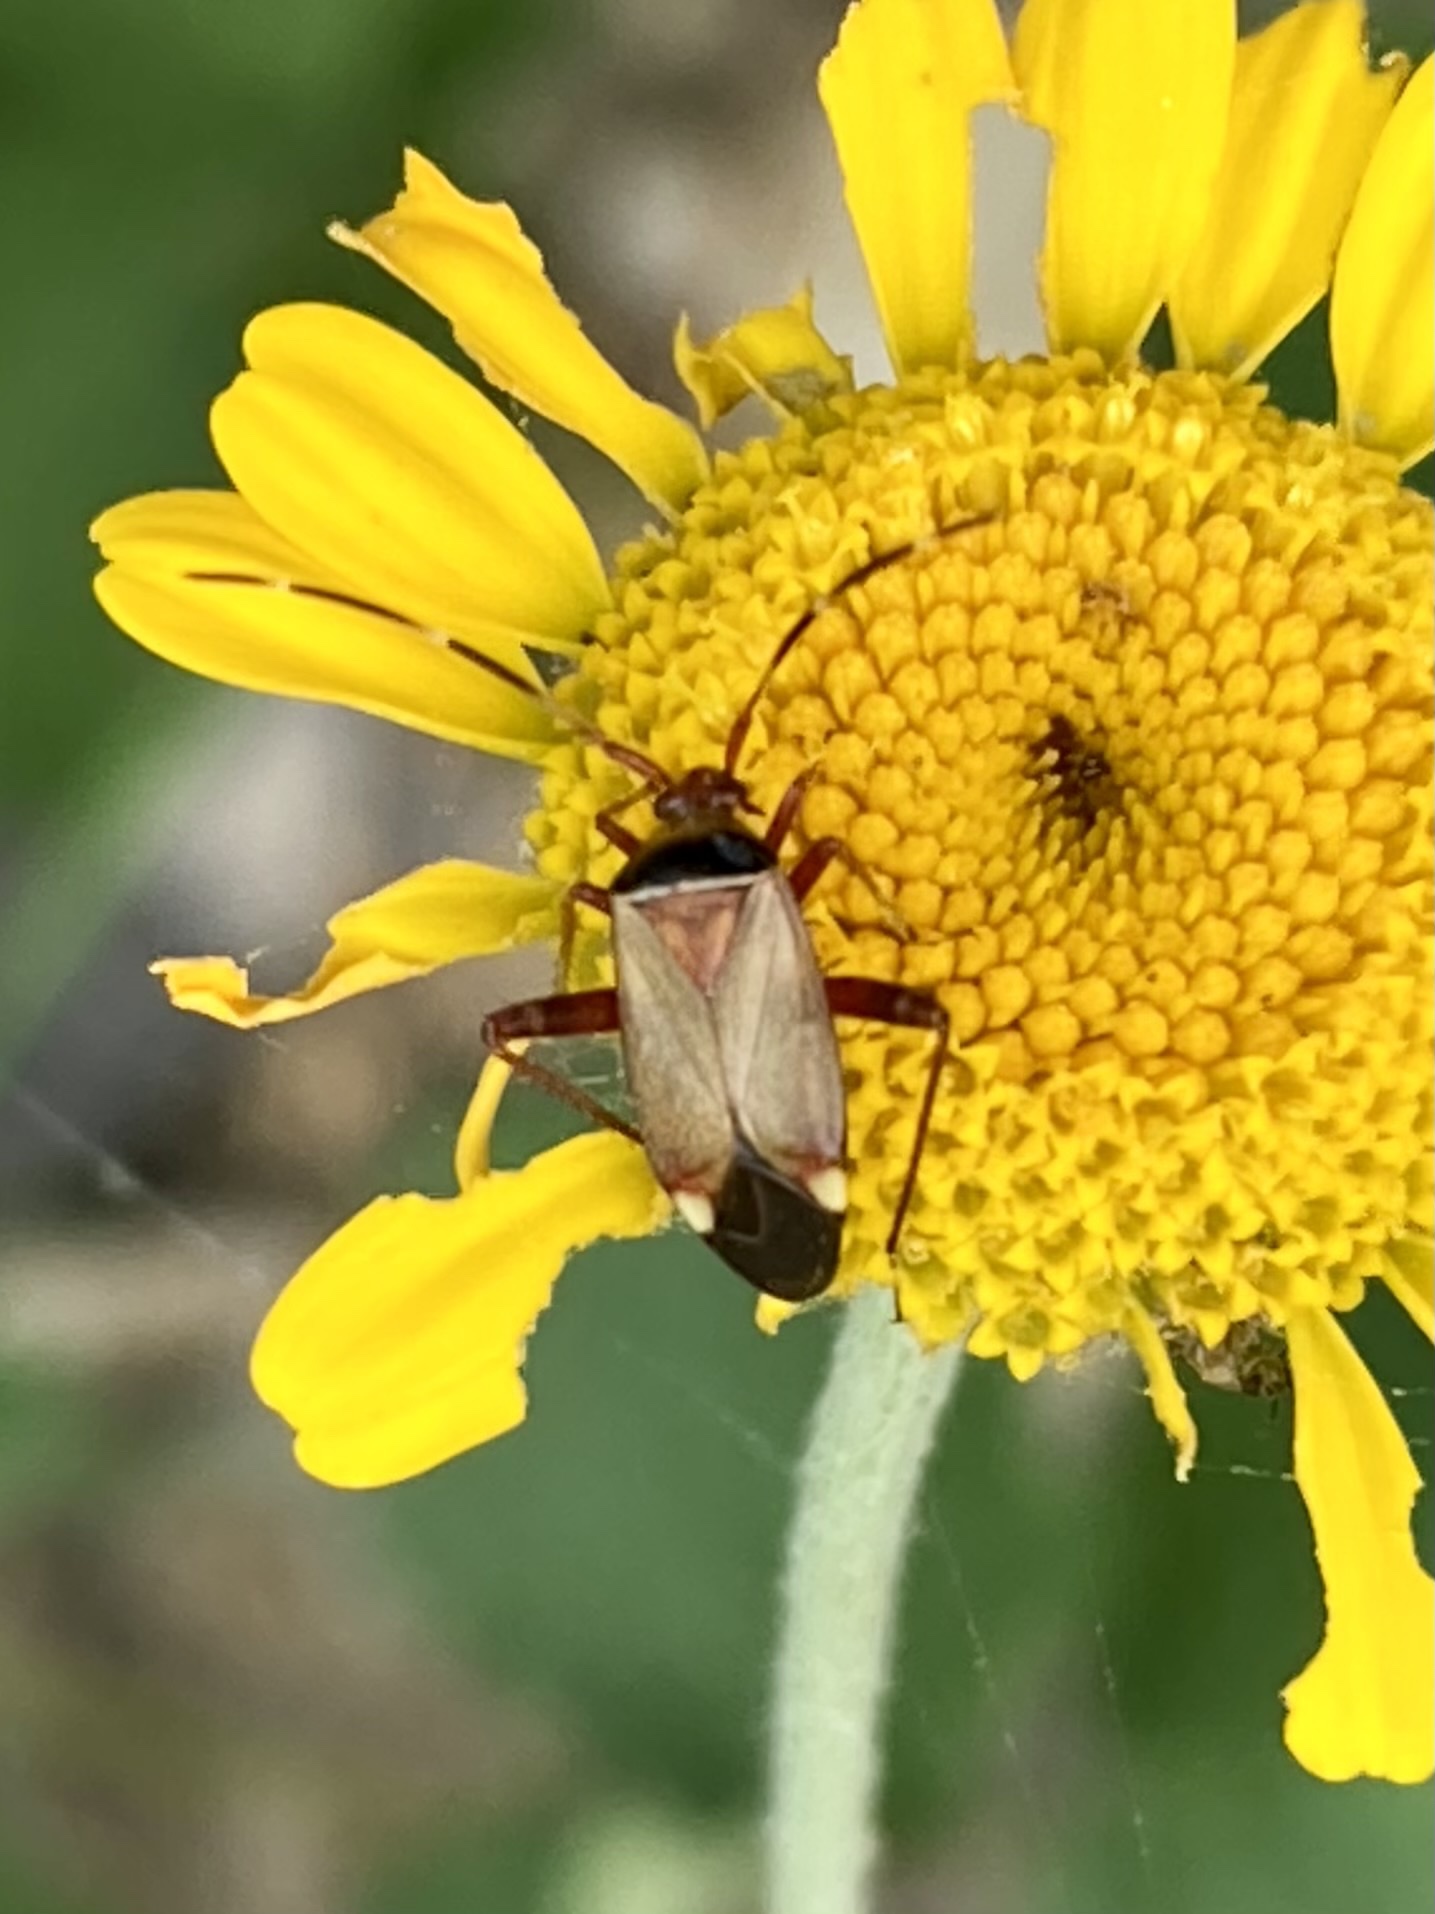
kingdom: Animalia
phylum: Arthropoda
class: Insecta
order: Hemiptera
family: Miridae
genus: Adelphocoris
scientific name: Adelphocoris vandalicus
